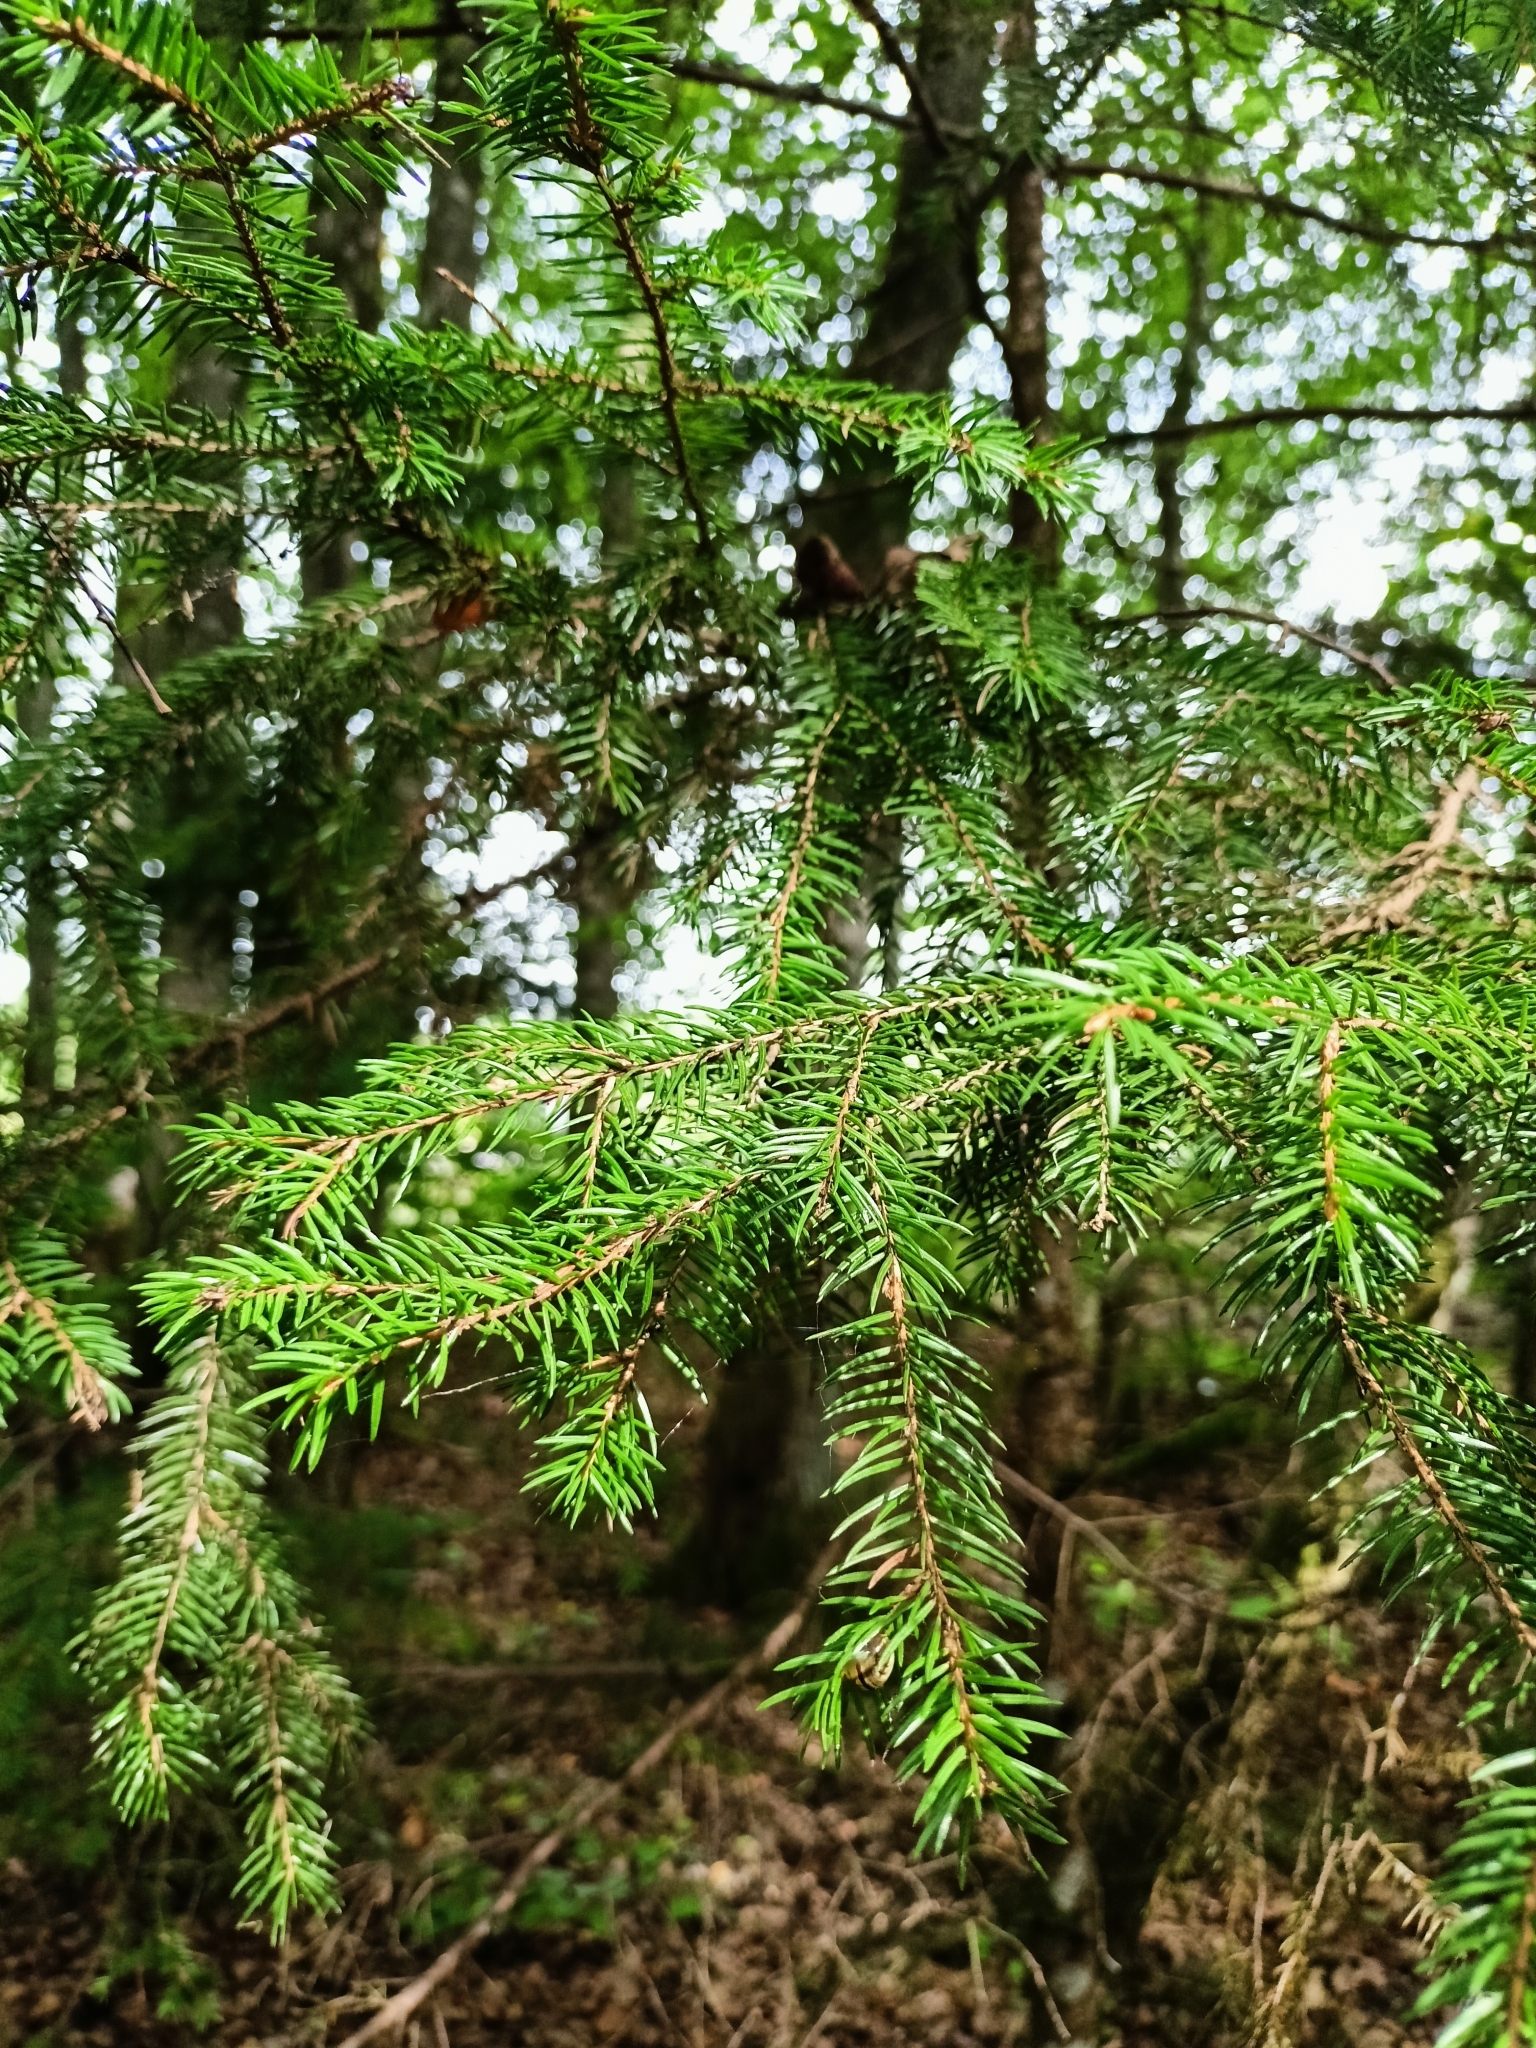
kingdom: Plantae
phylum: Tracheophyta
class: Pinopsida
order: Pinales
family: Pinaceae
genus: Picea
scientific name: Picea abies
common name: Norway spruce
